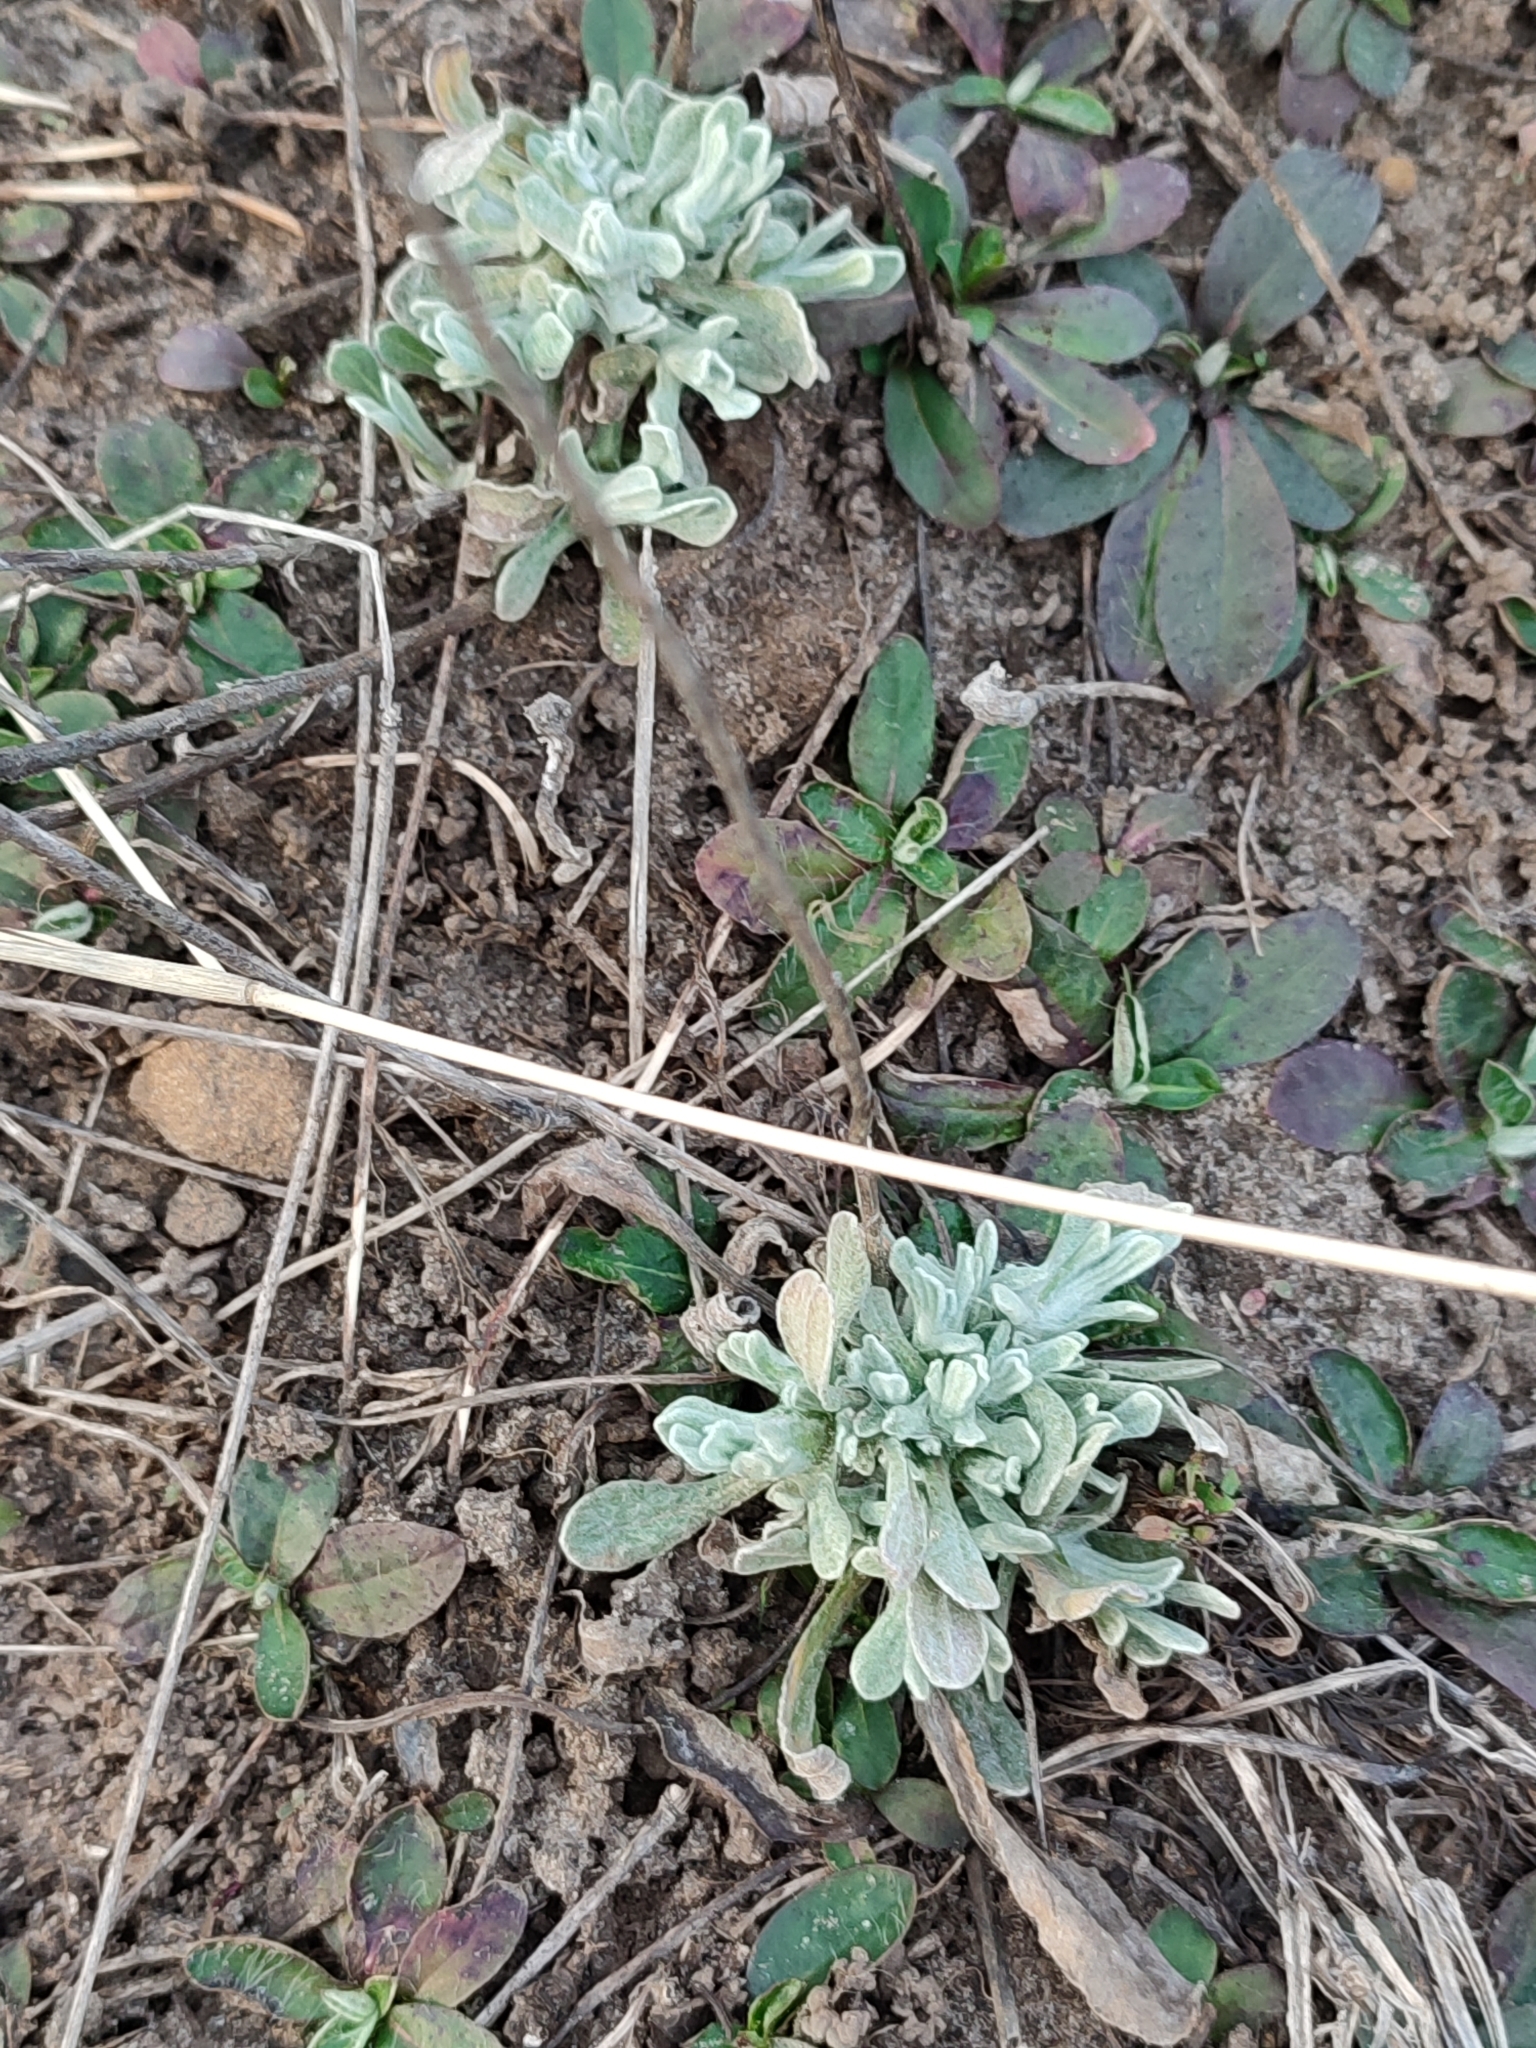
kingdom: Plantae
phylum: Tracheophyta
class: Magnoliopsida
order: Asterales
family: Asteraceae
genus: Helichrysum
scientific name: Helichrysum arenarium
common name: Strawflower
